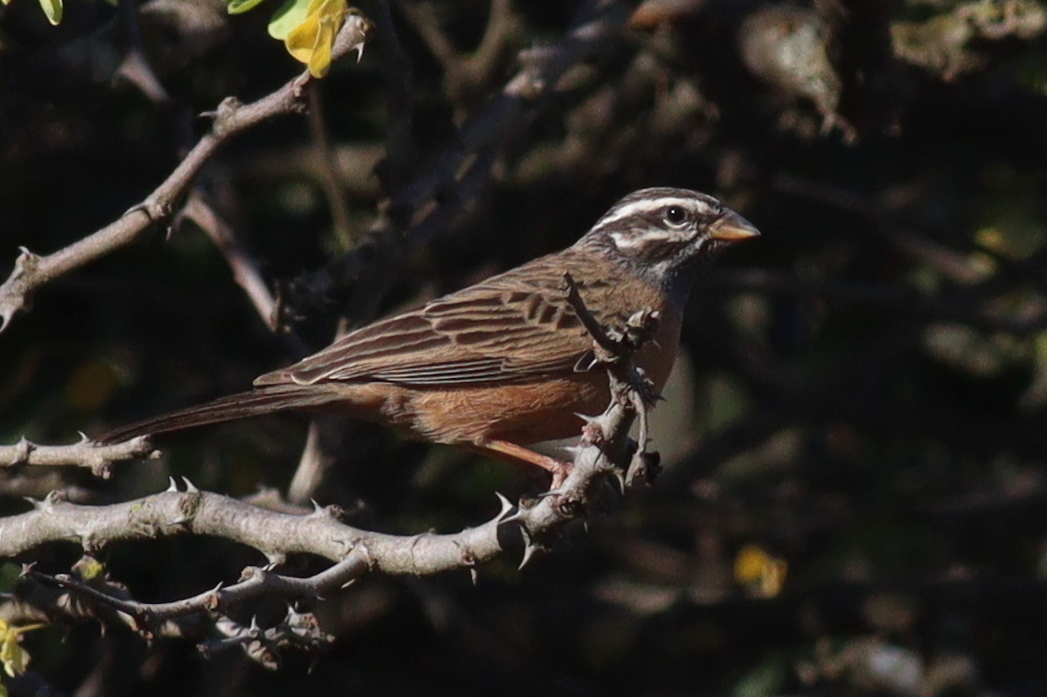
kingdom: Animalia
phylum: Chordata
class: Aves
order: Passeriformes
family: Emberizidae
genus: Emberiza
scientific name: Emberiza tahapisi
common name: Cinnamon-breasted bunting
